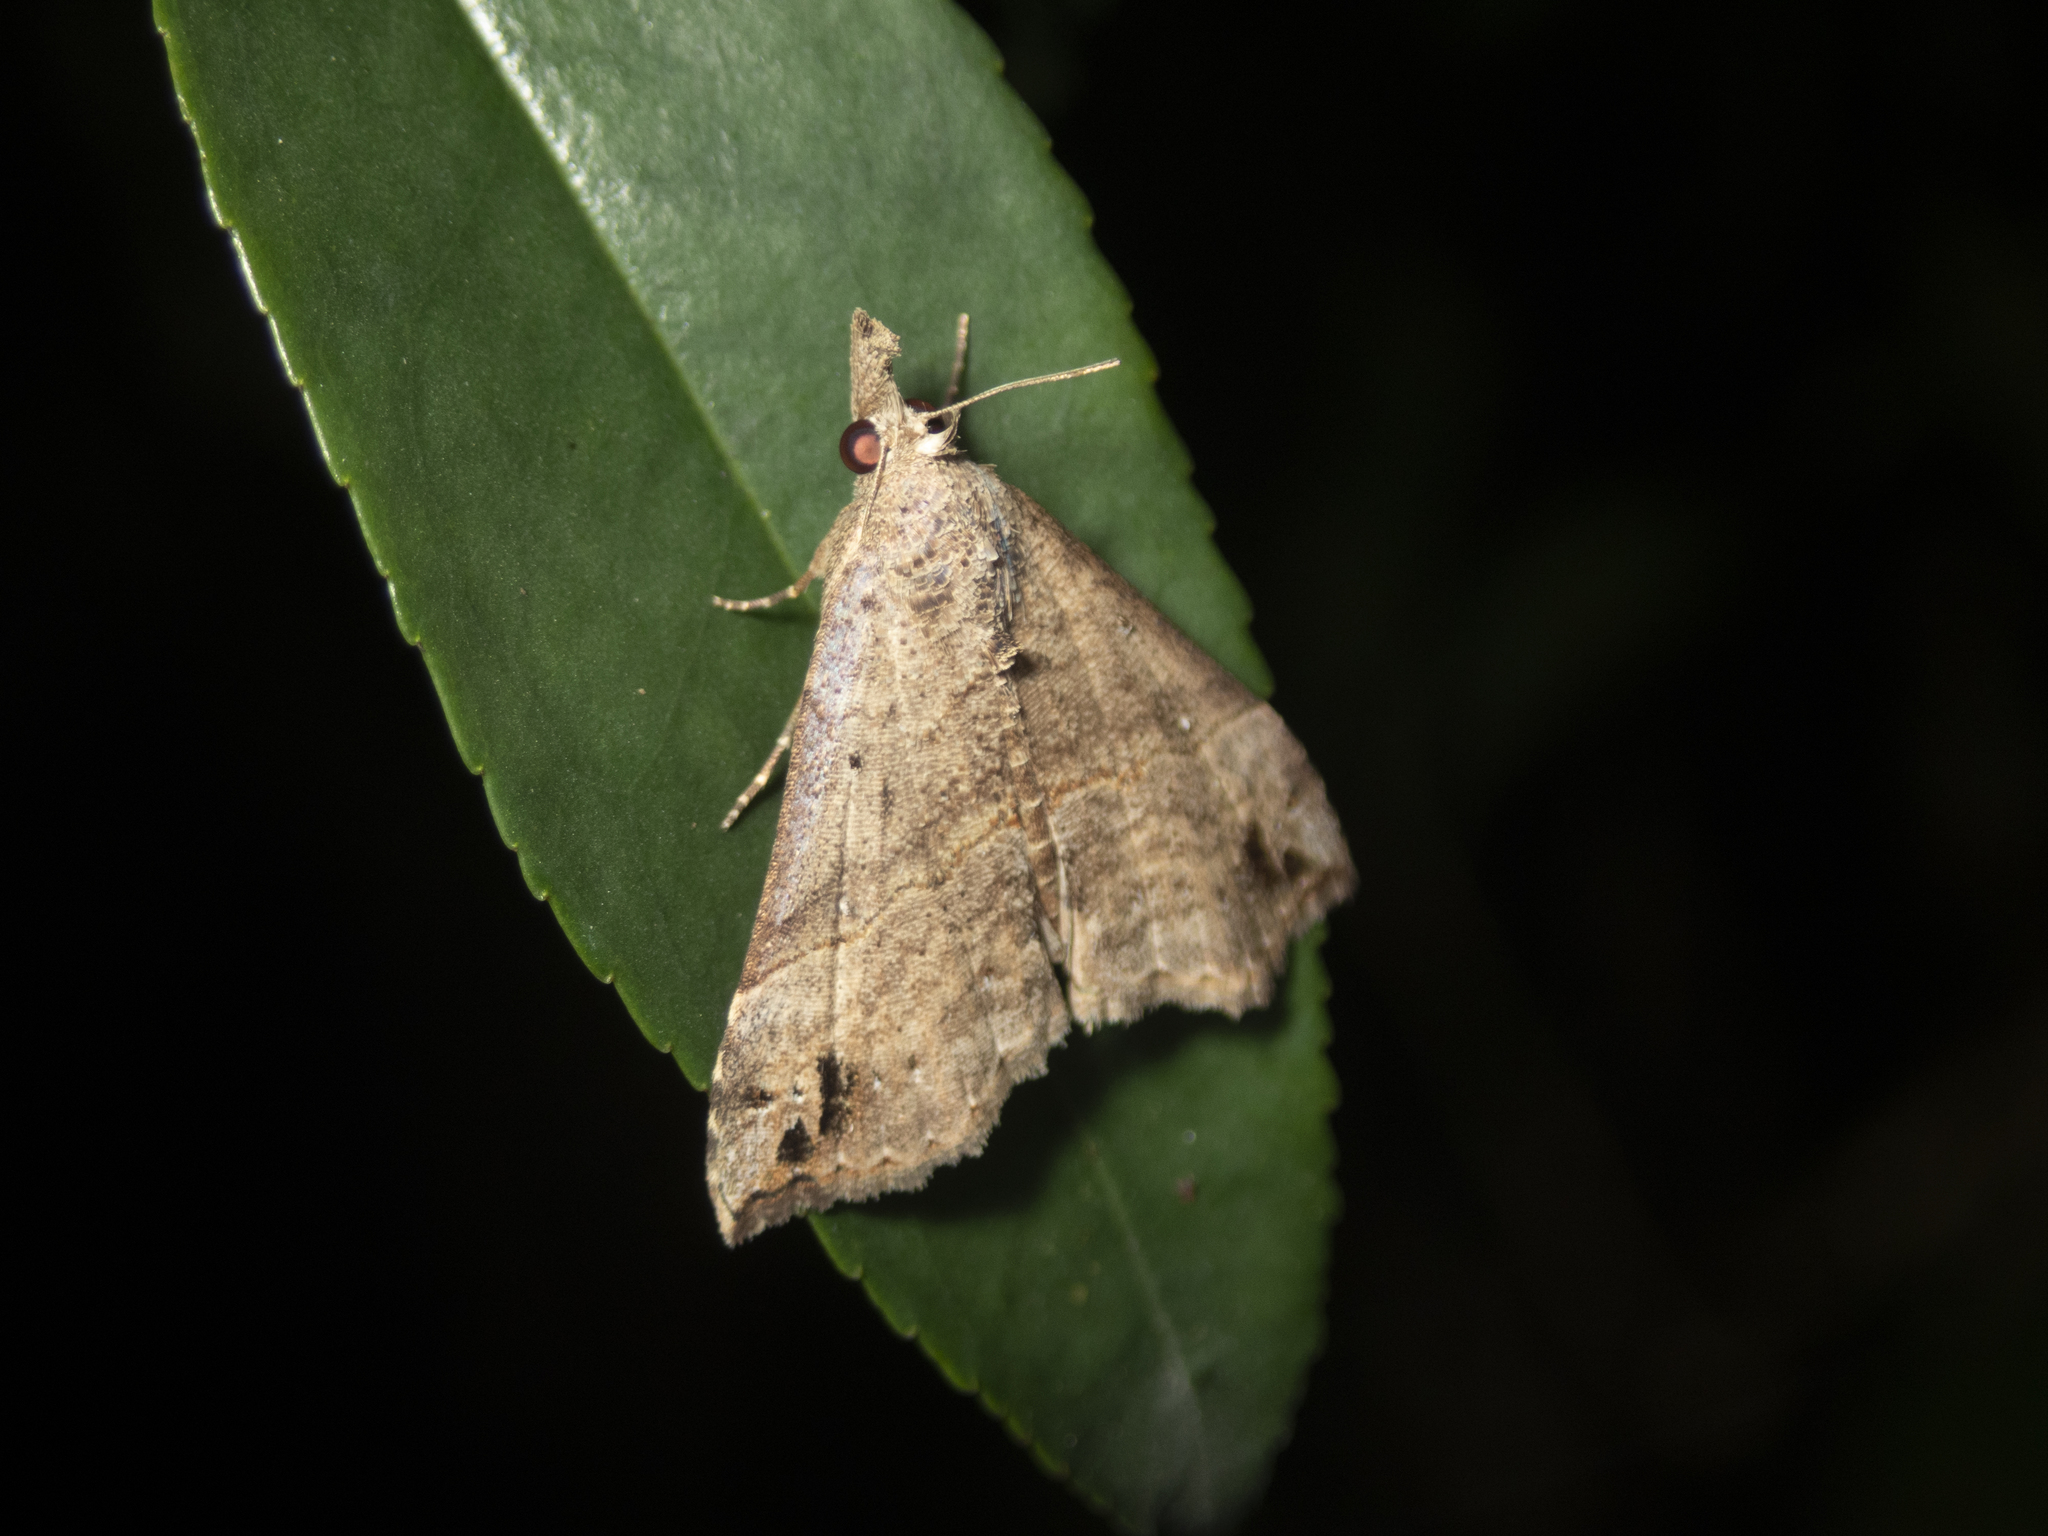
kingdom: Animalia
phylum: Arthropoda
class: Insecta
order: Lepidoptera
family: Erebidae
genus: Hypena
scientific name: Hypena
